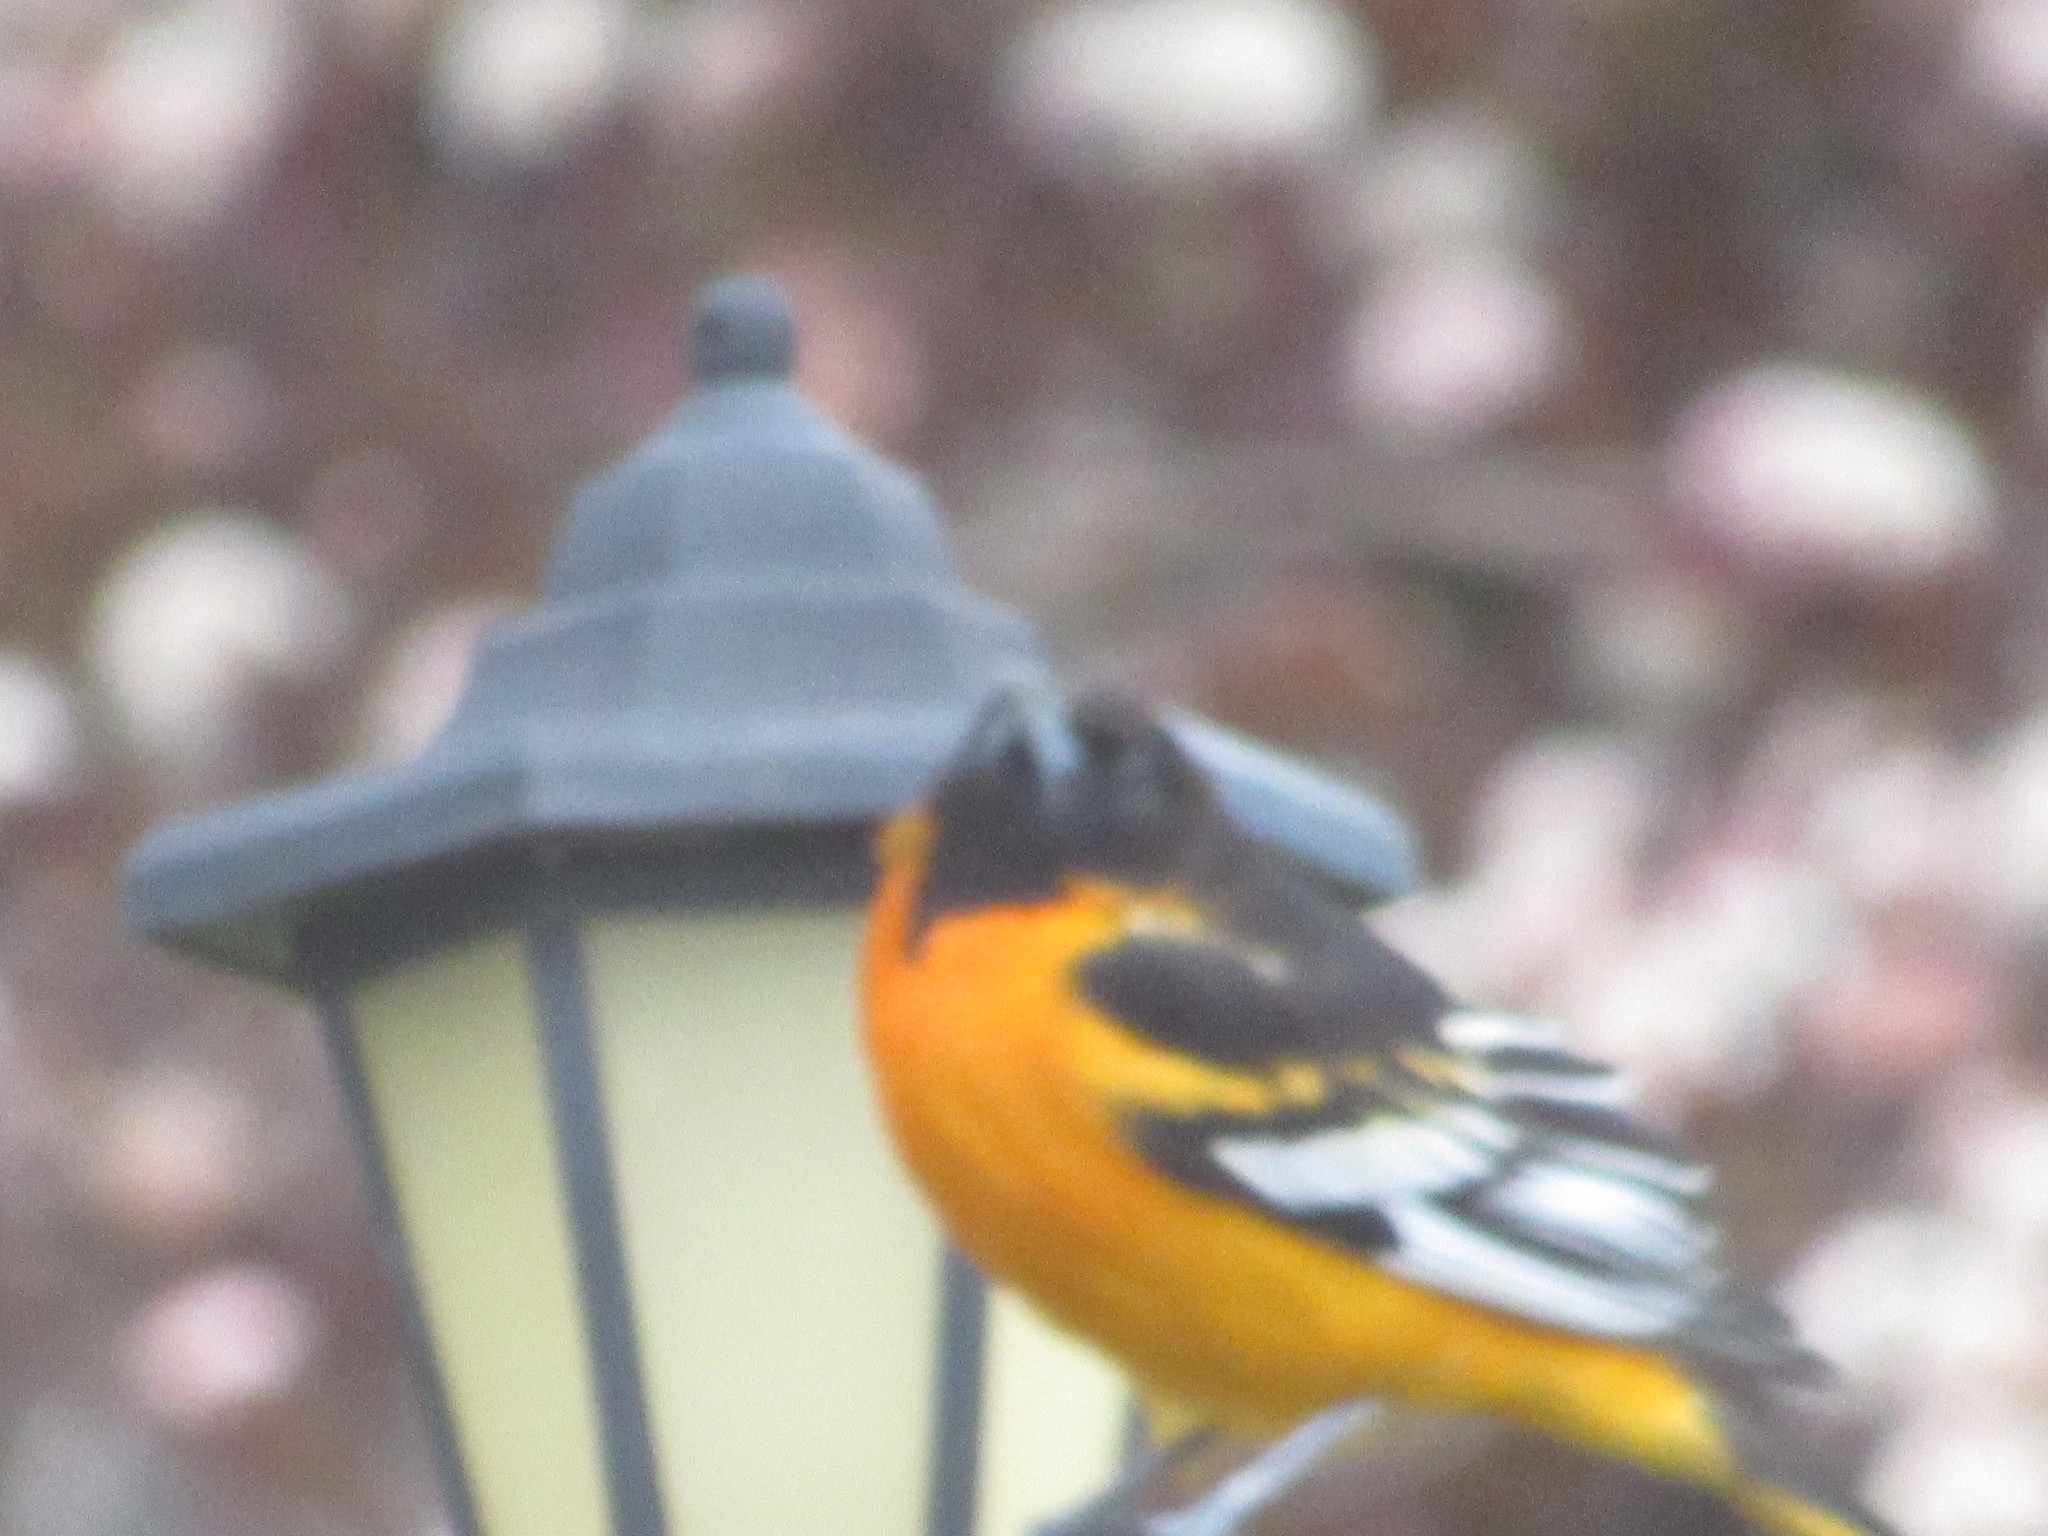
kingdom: Animalia
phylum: Chordata
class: Aves
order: Passeriformes
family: Icteridae
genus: Icterus
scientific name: Icterus galbula
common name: Baltimore oriole
